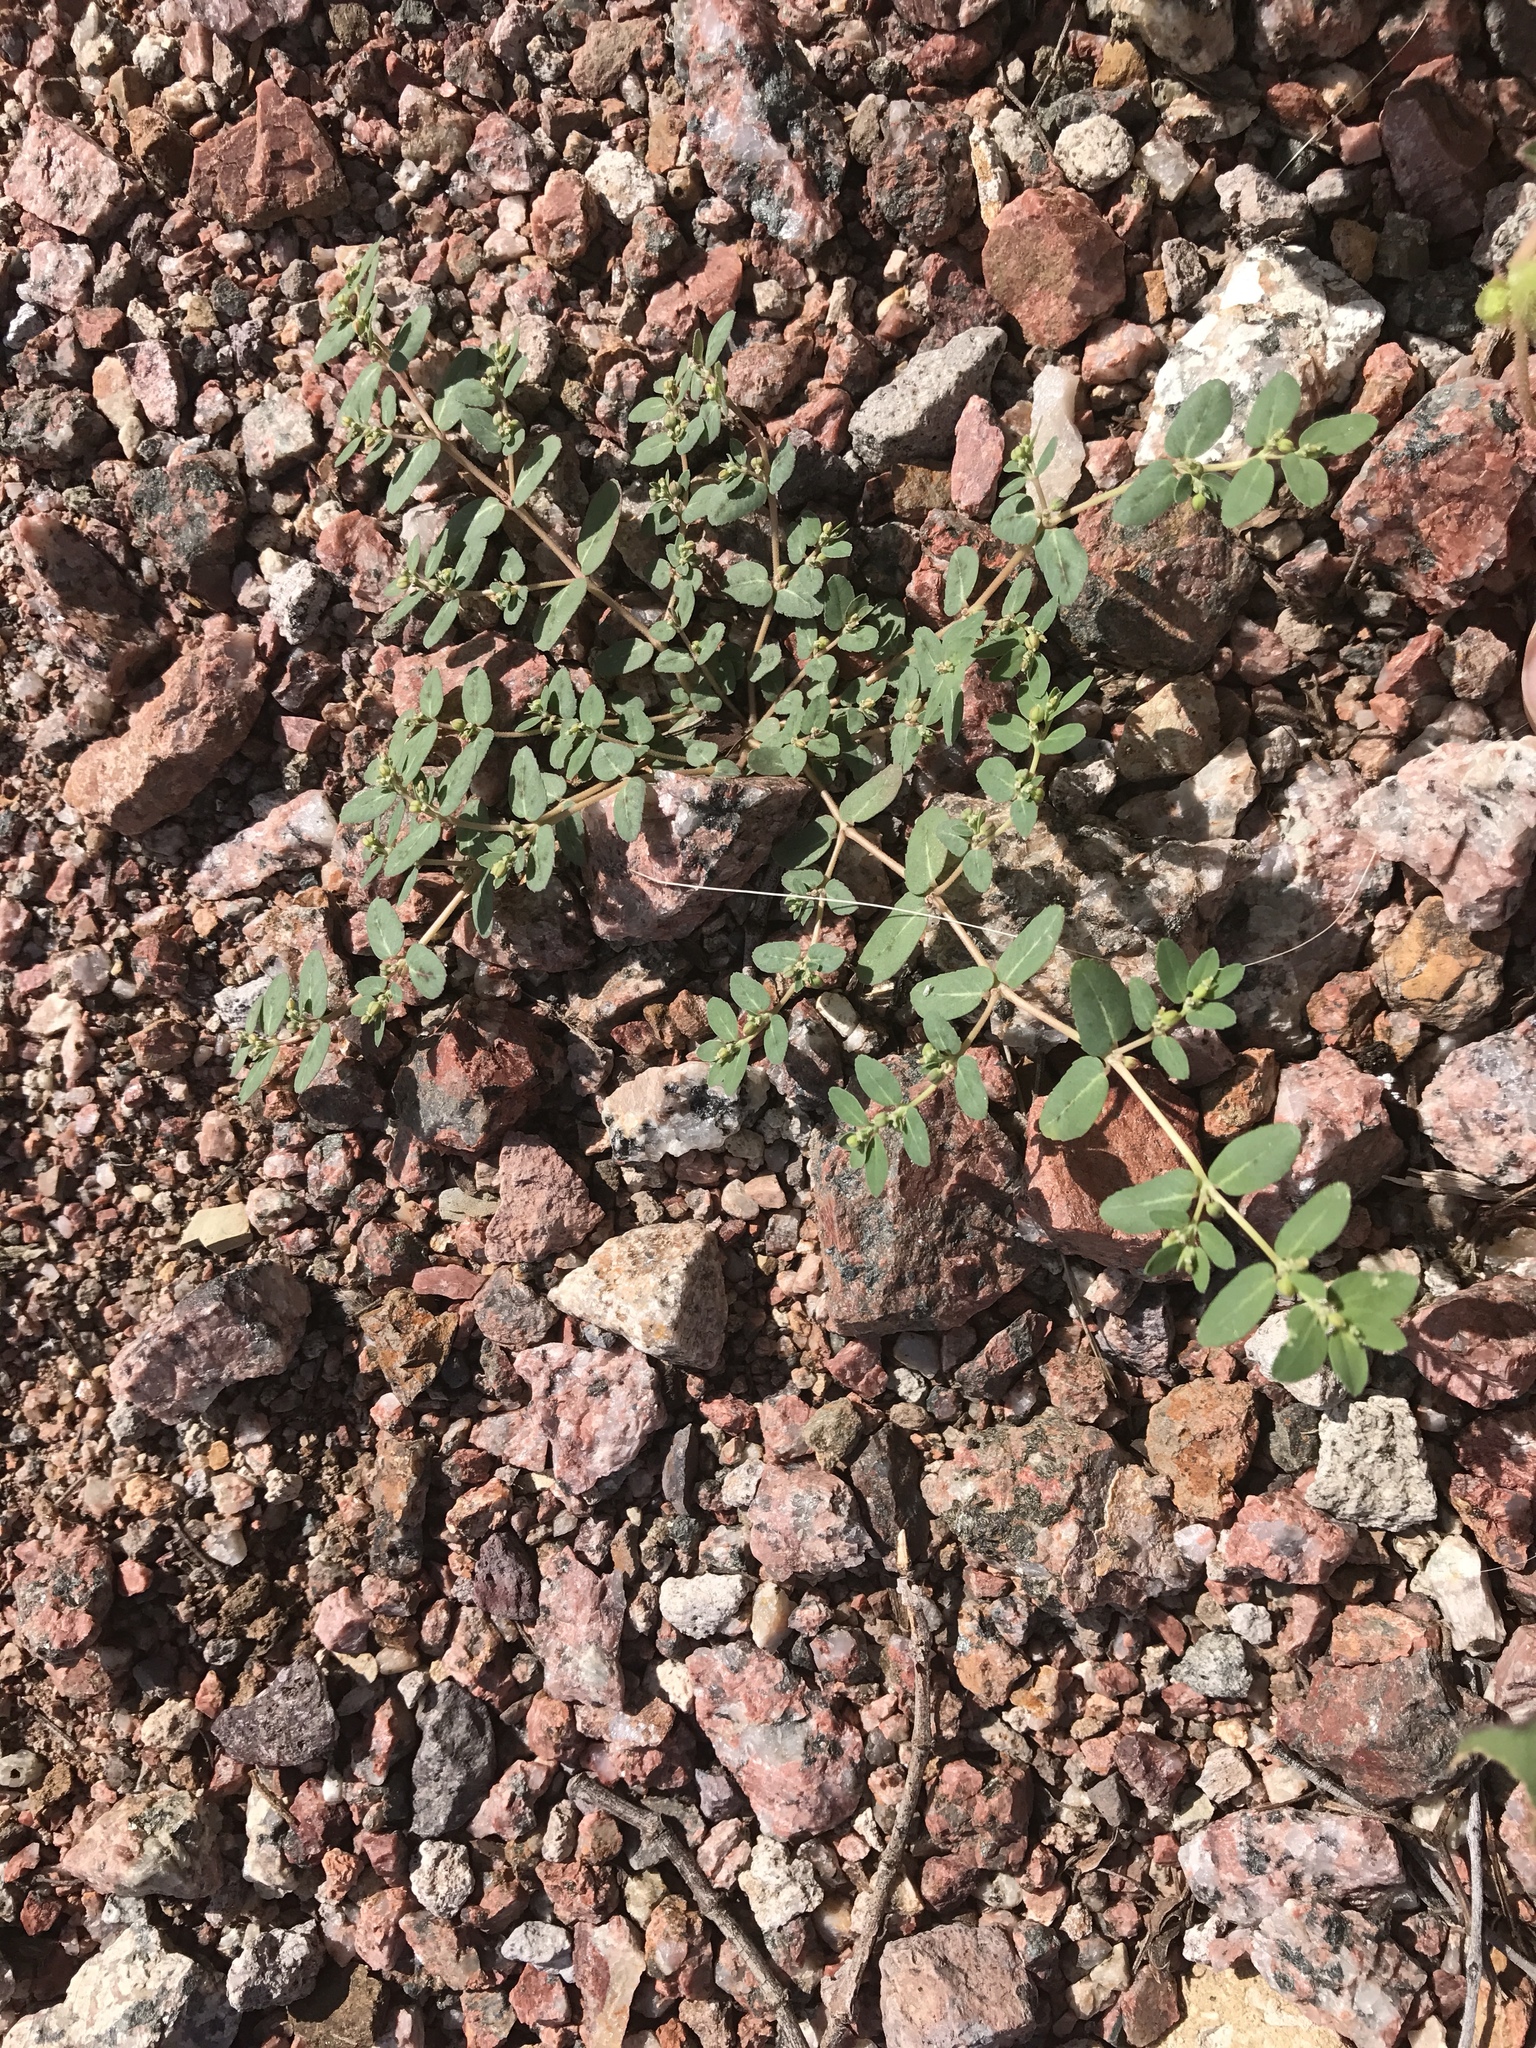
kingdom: Plantae
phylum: Tracheophyta
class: Magnoliopsida
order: Malpighiales
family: Euphorbiaceae
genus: Euphorbia
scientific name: Euphorbia abramsiana
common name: Abram's spurge
